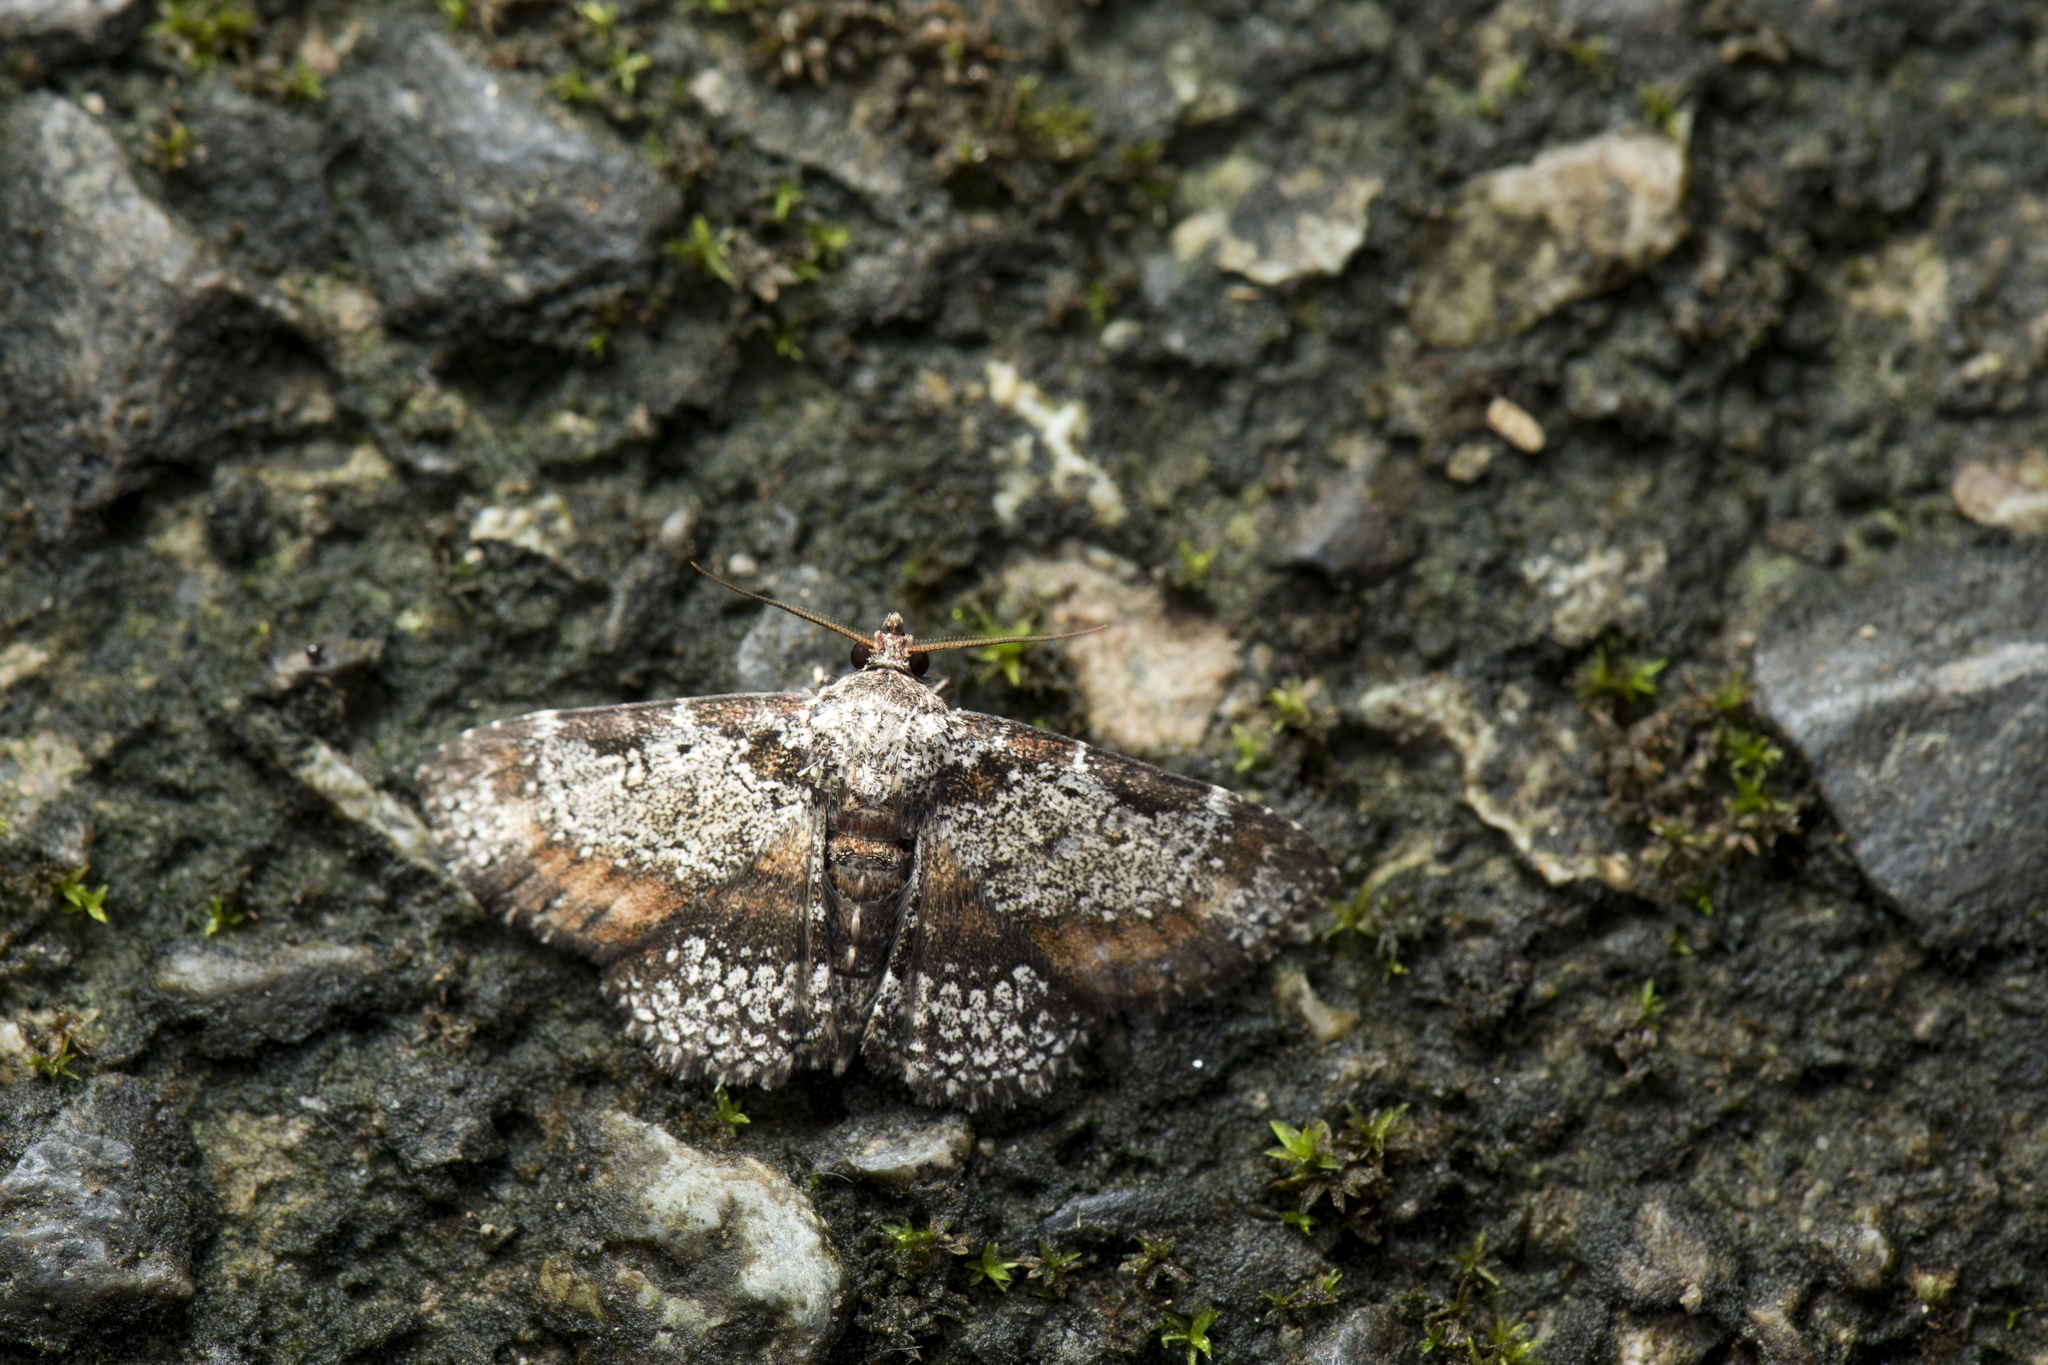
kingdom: Animalia
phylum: Arthropoda
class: Insecta
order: Lepidoptera
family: Erebidae
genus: Caduca
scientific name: Caduca albopunctata
